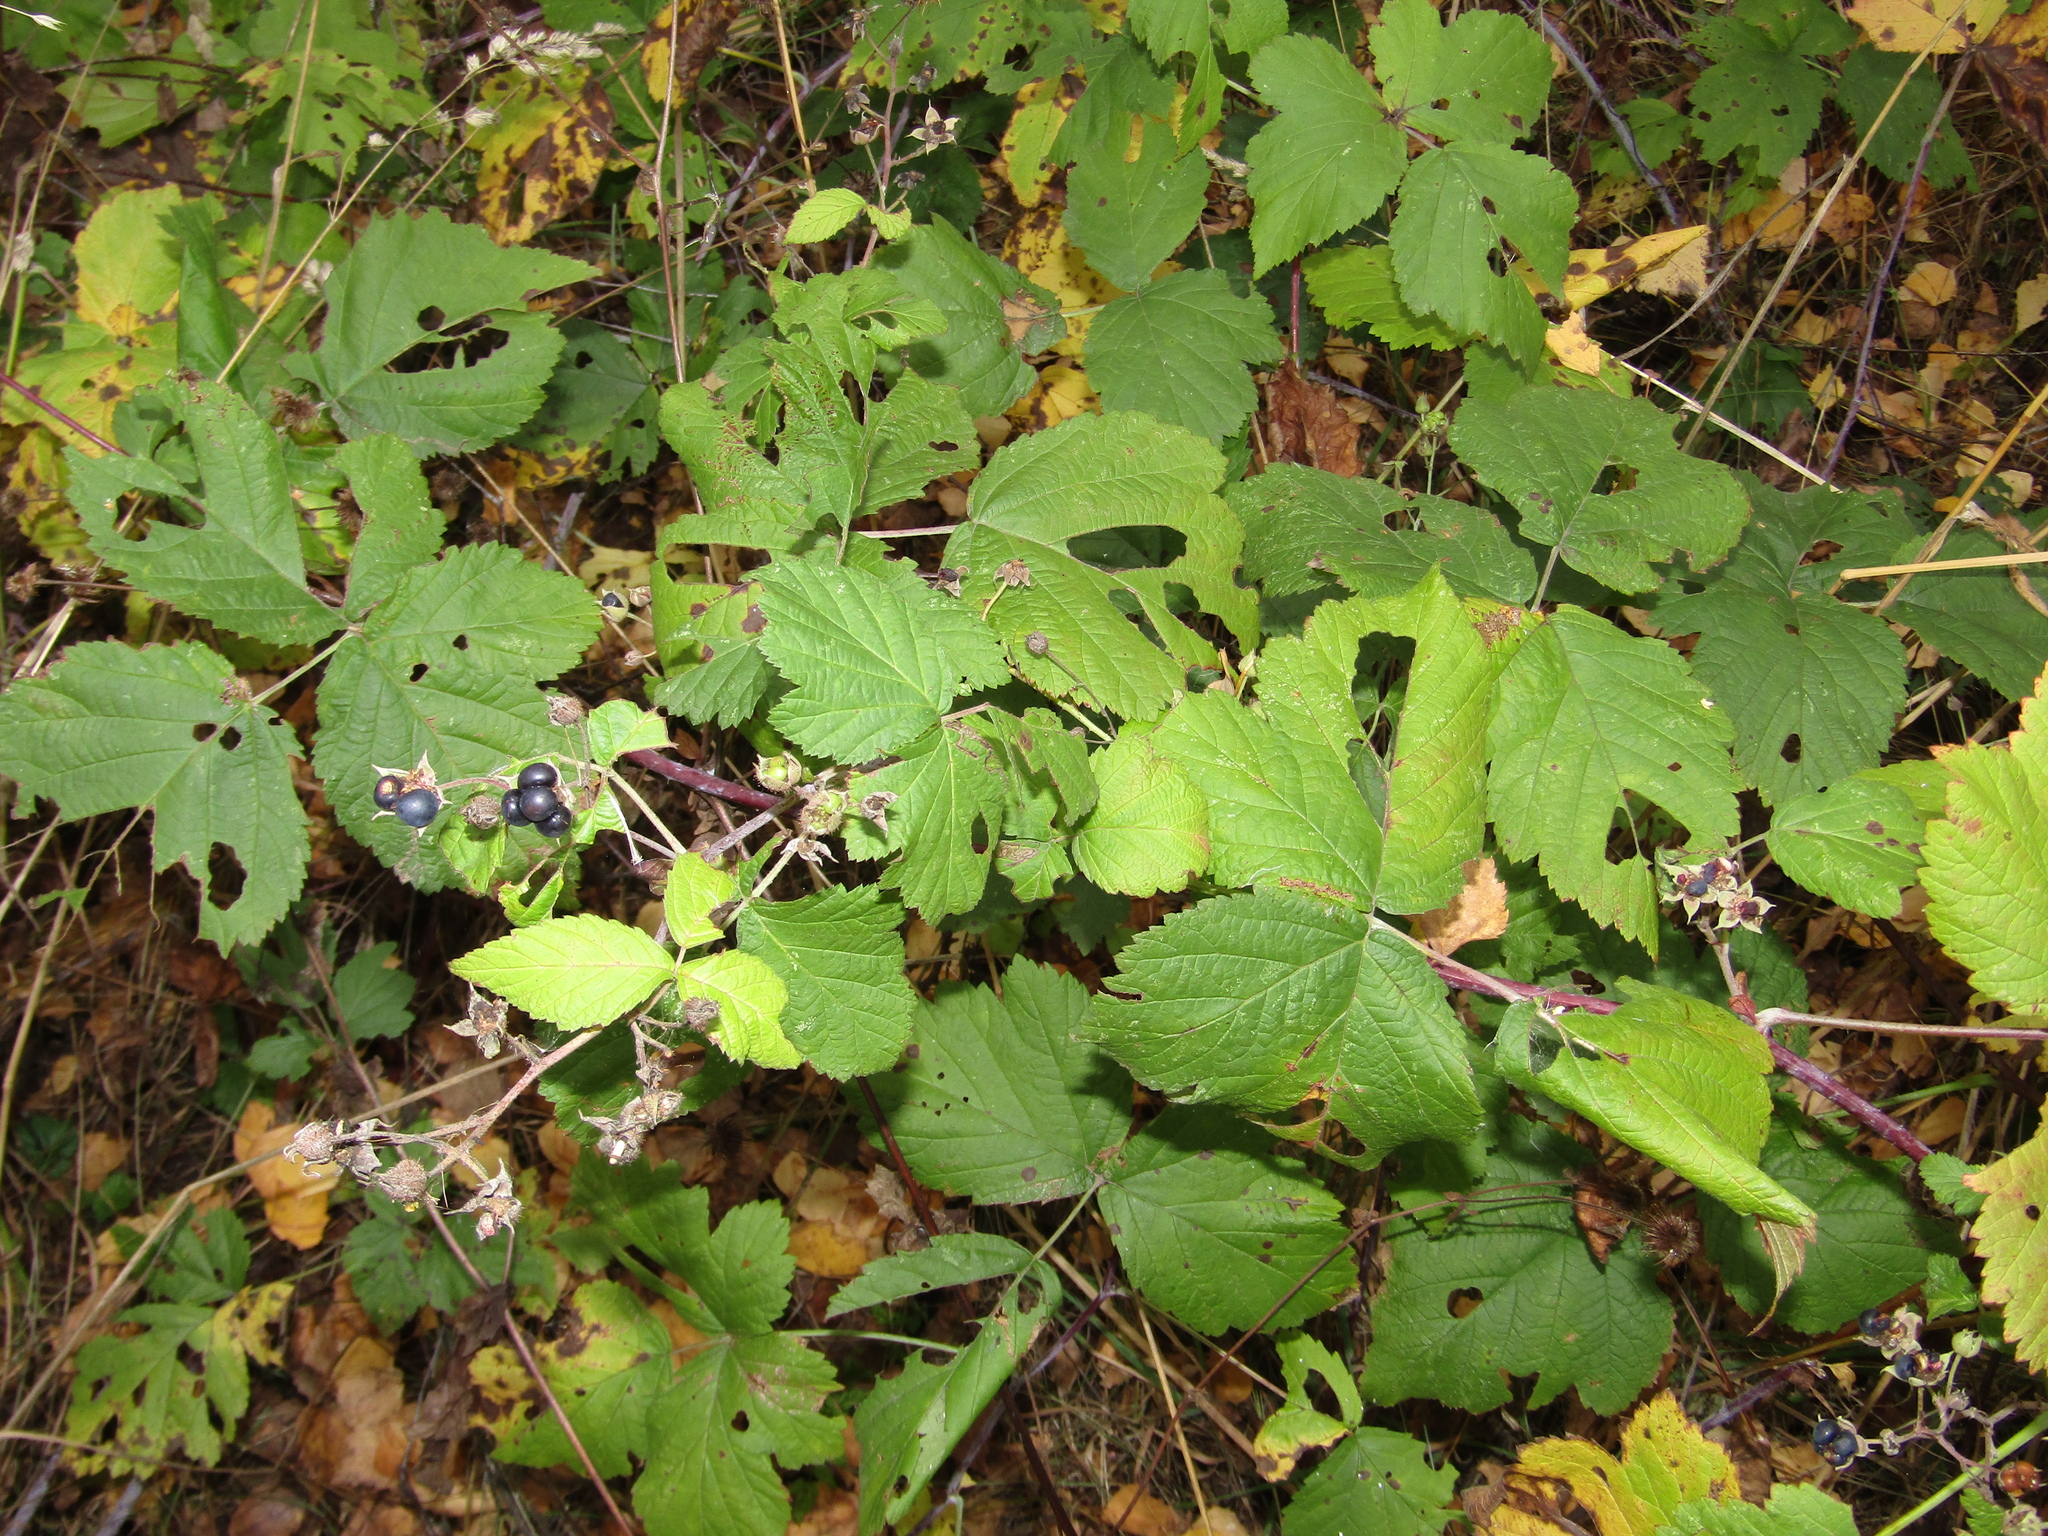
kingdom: Plantae
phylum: Tracheophyta
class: Magnoliopsida
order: Rosales
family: Rosaceae
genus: Rubus
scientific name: Rubus caesius
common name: Dewberry
